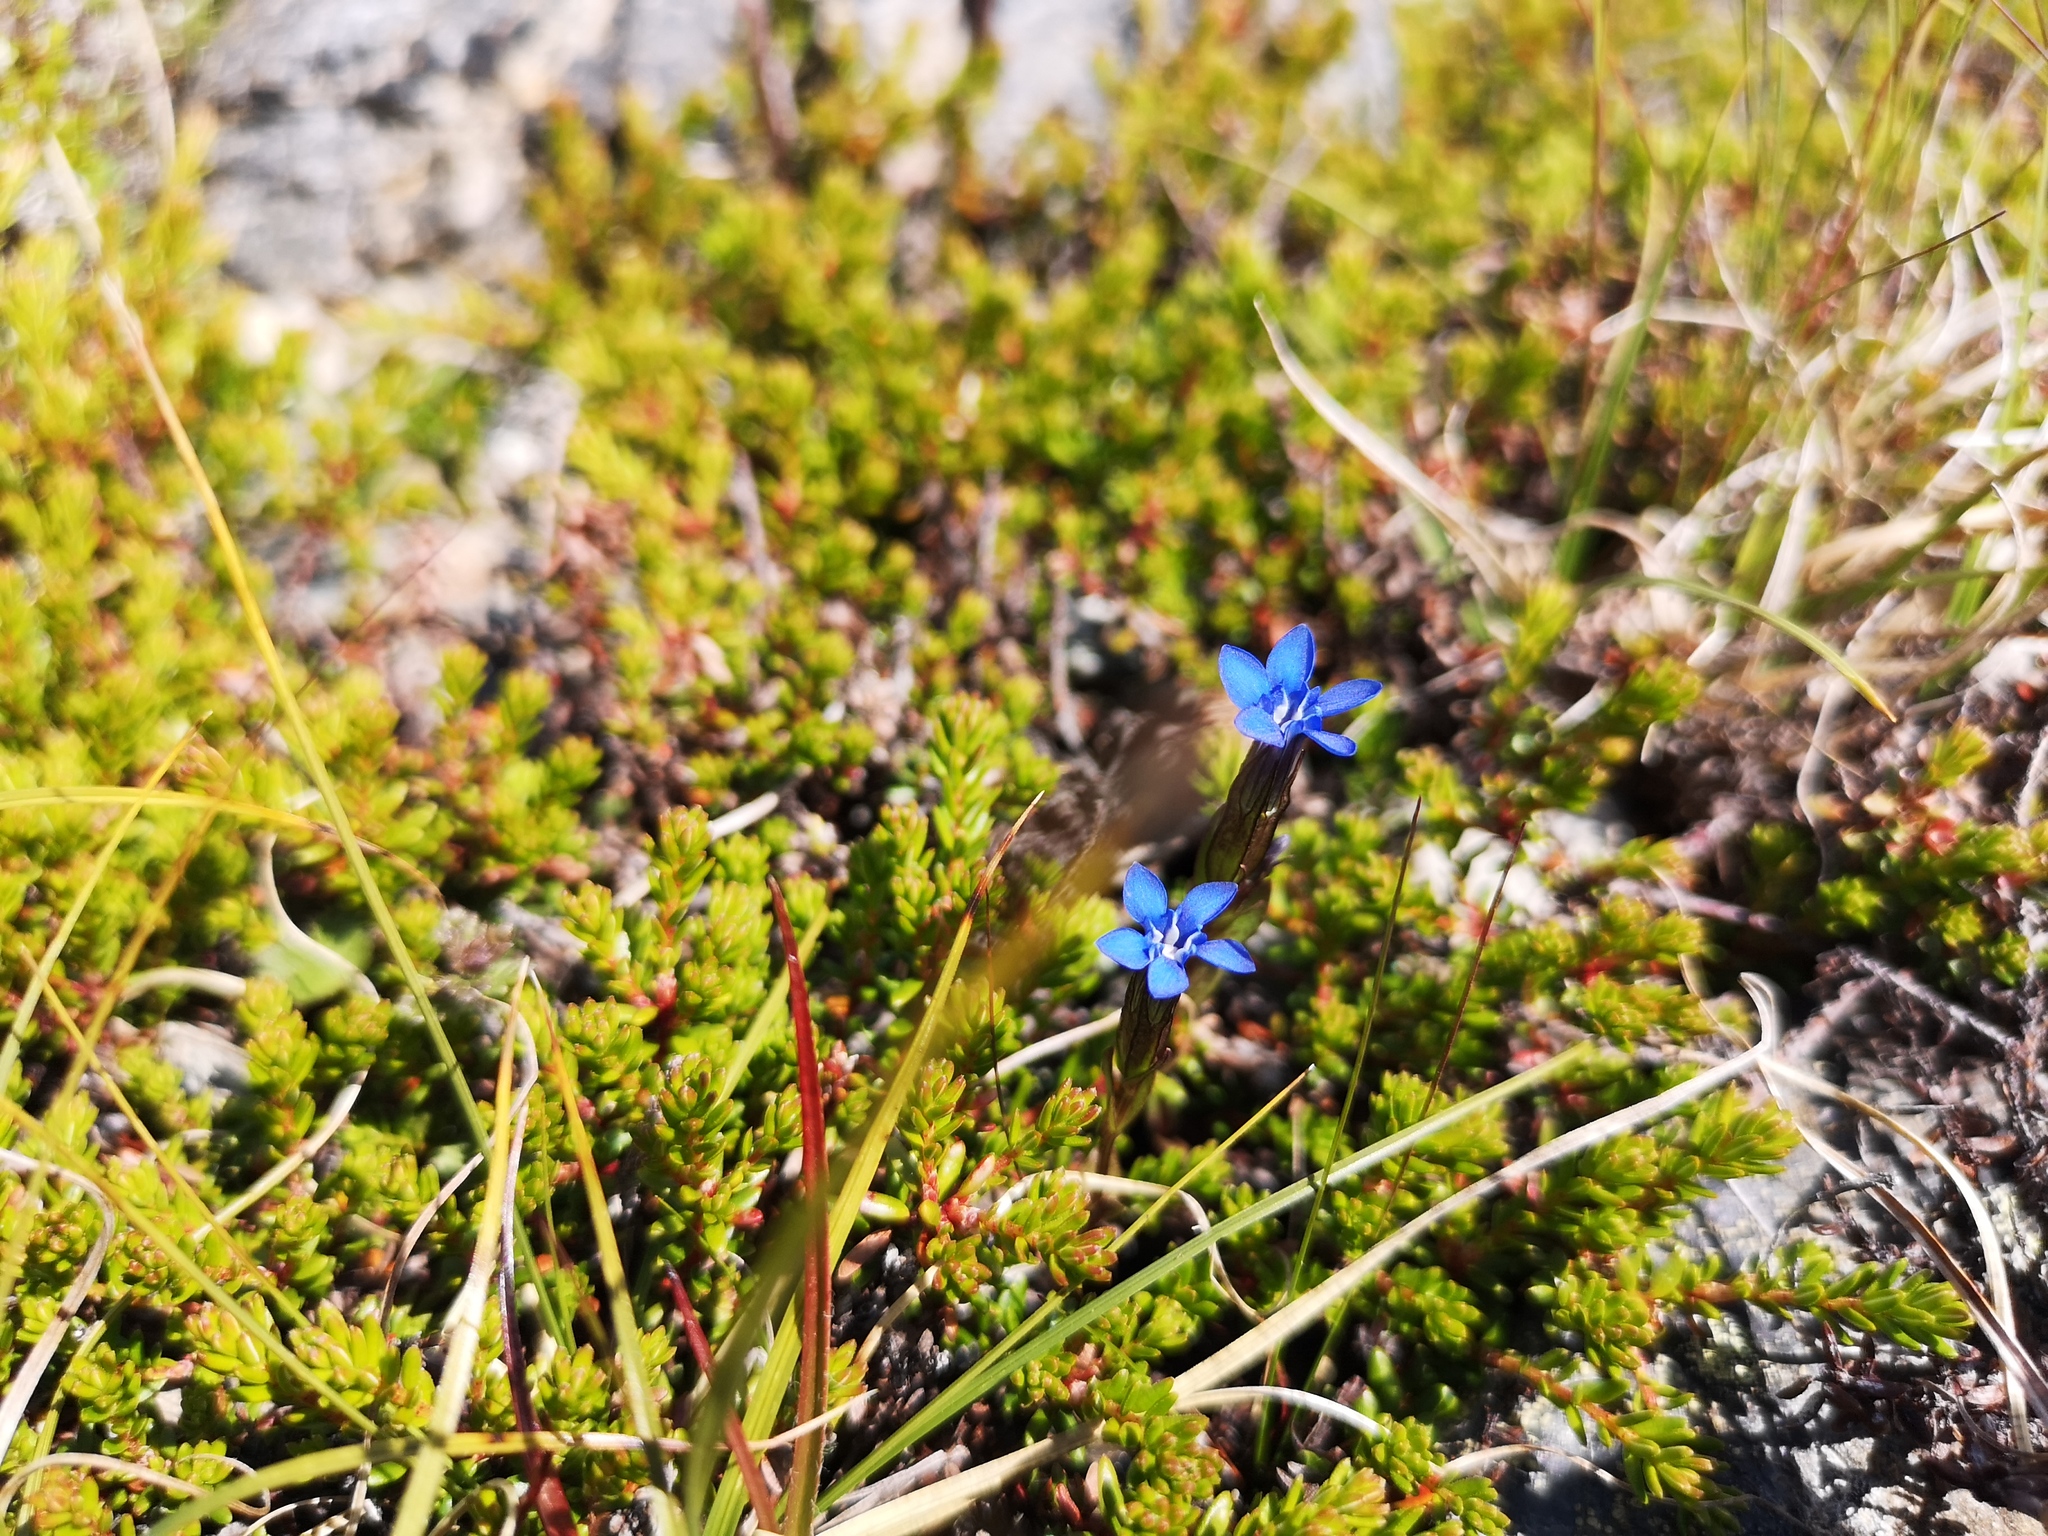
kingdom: Plantae
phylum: Tracheophyta
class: Magnoliopsida
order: Gentianales
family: Gentianaceae
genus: Gentiana
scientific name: Gentiana nivalis
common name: Alpine gentian
